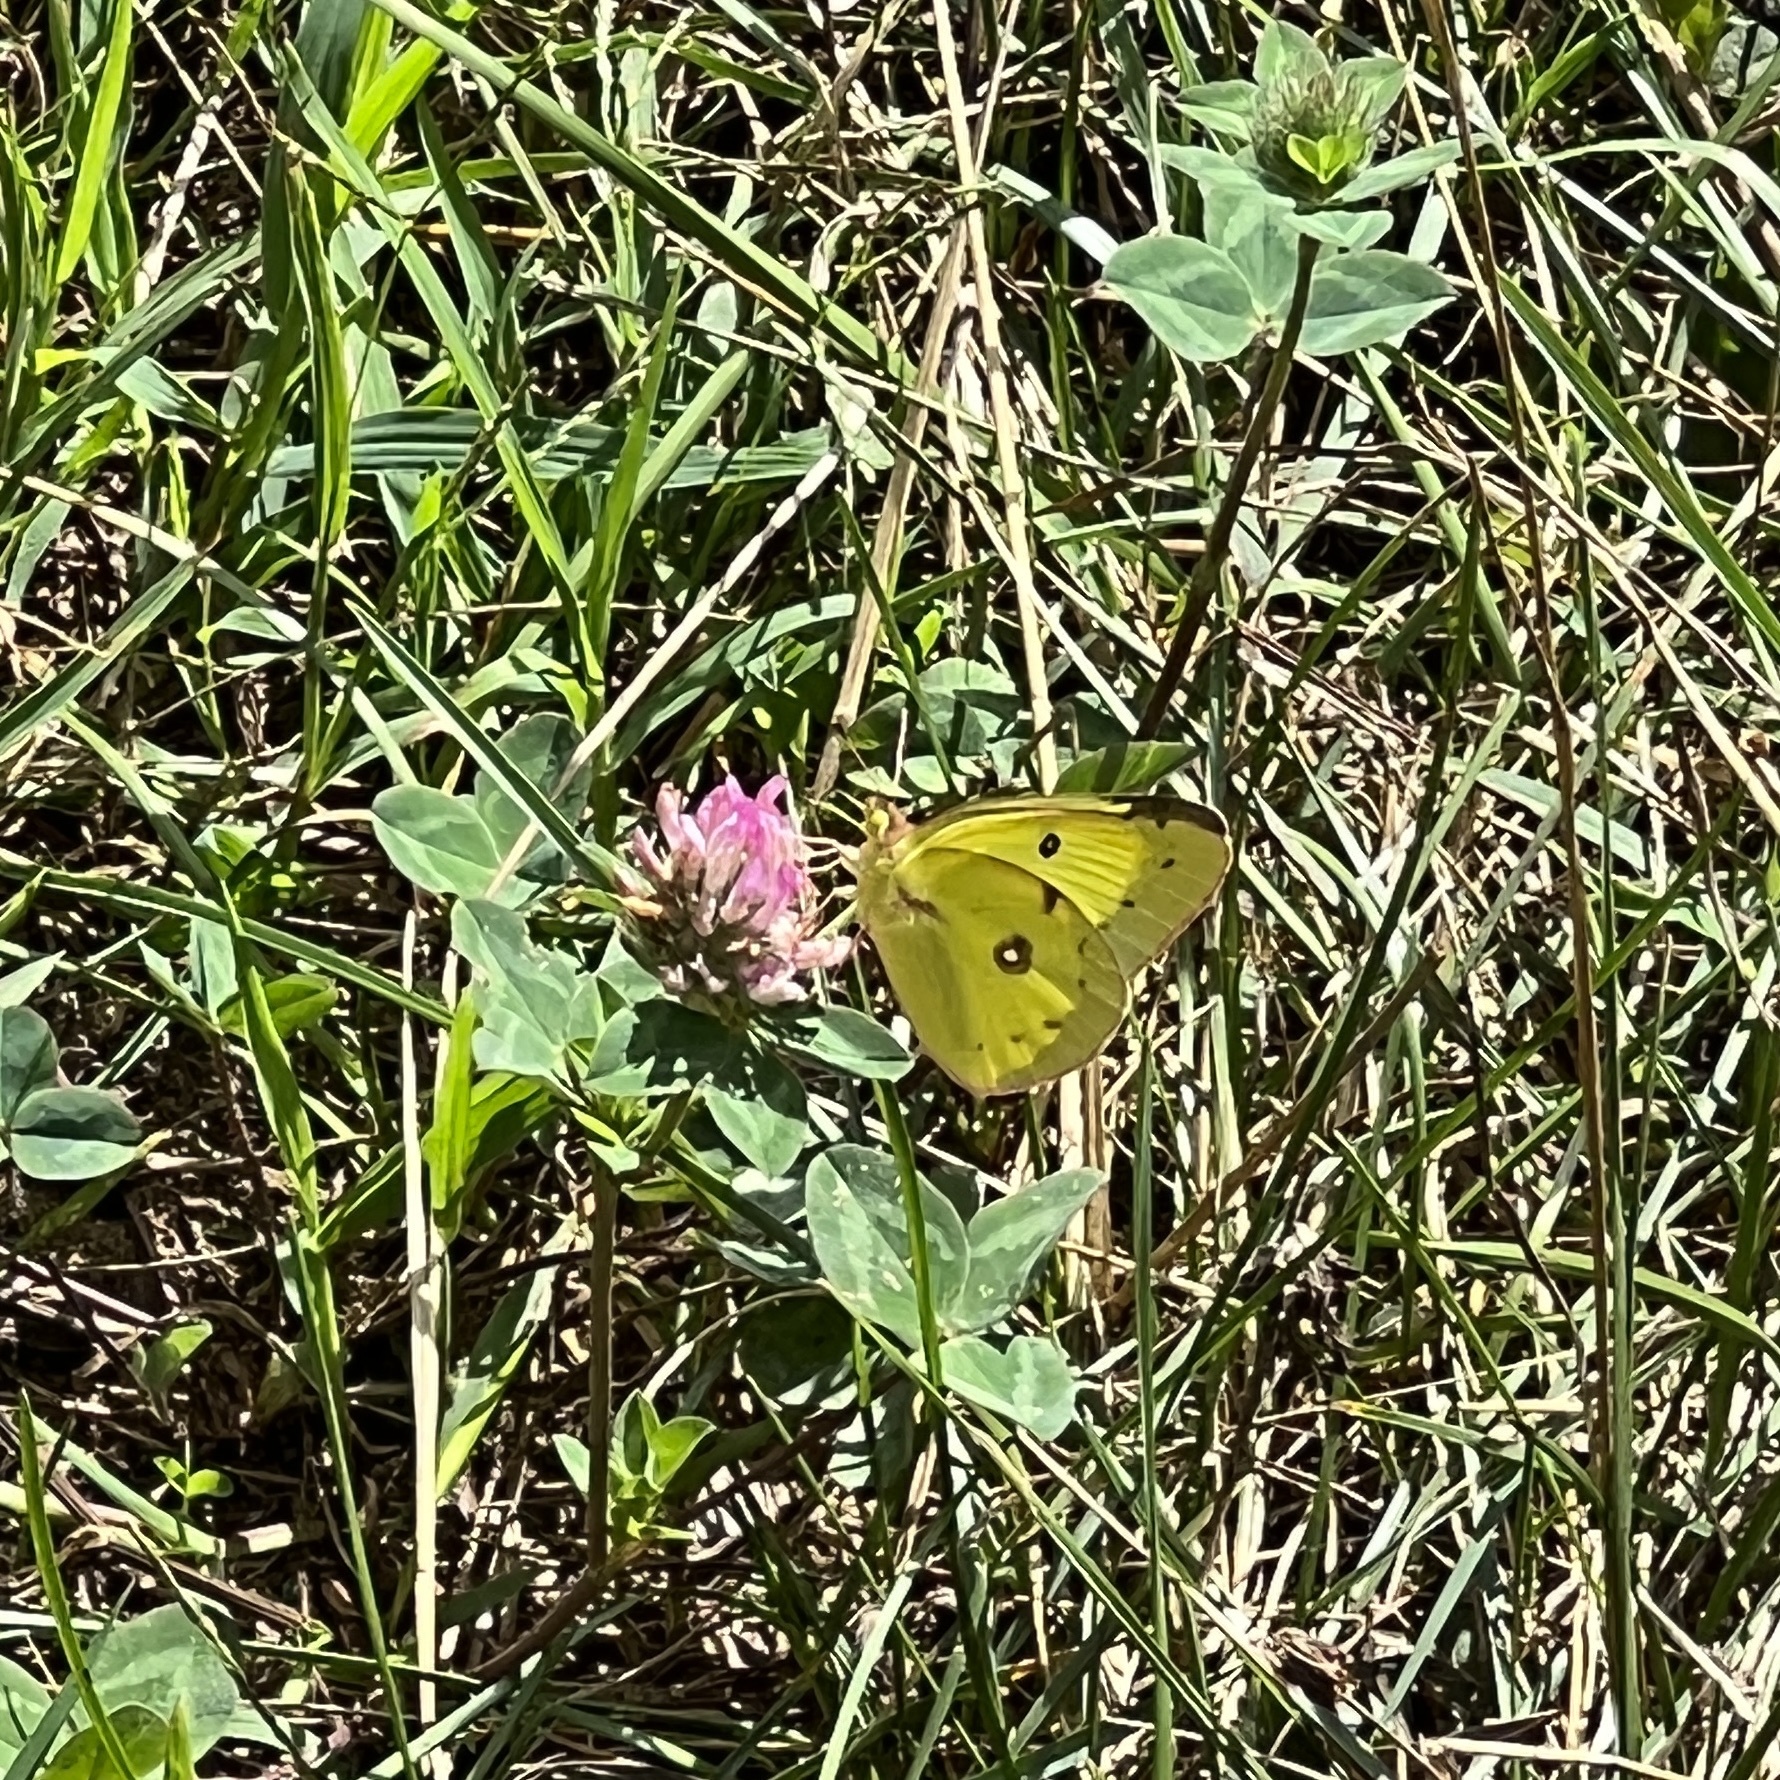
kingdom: Animalia
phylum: Arthropoda
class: Insecta
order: Lepidoptera
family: Pieridae
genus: Colias
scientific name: Colias philodice
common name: Clouded sulphur
